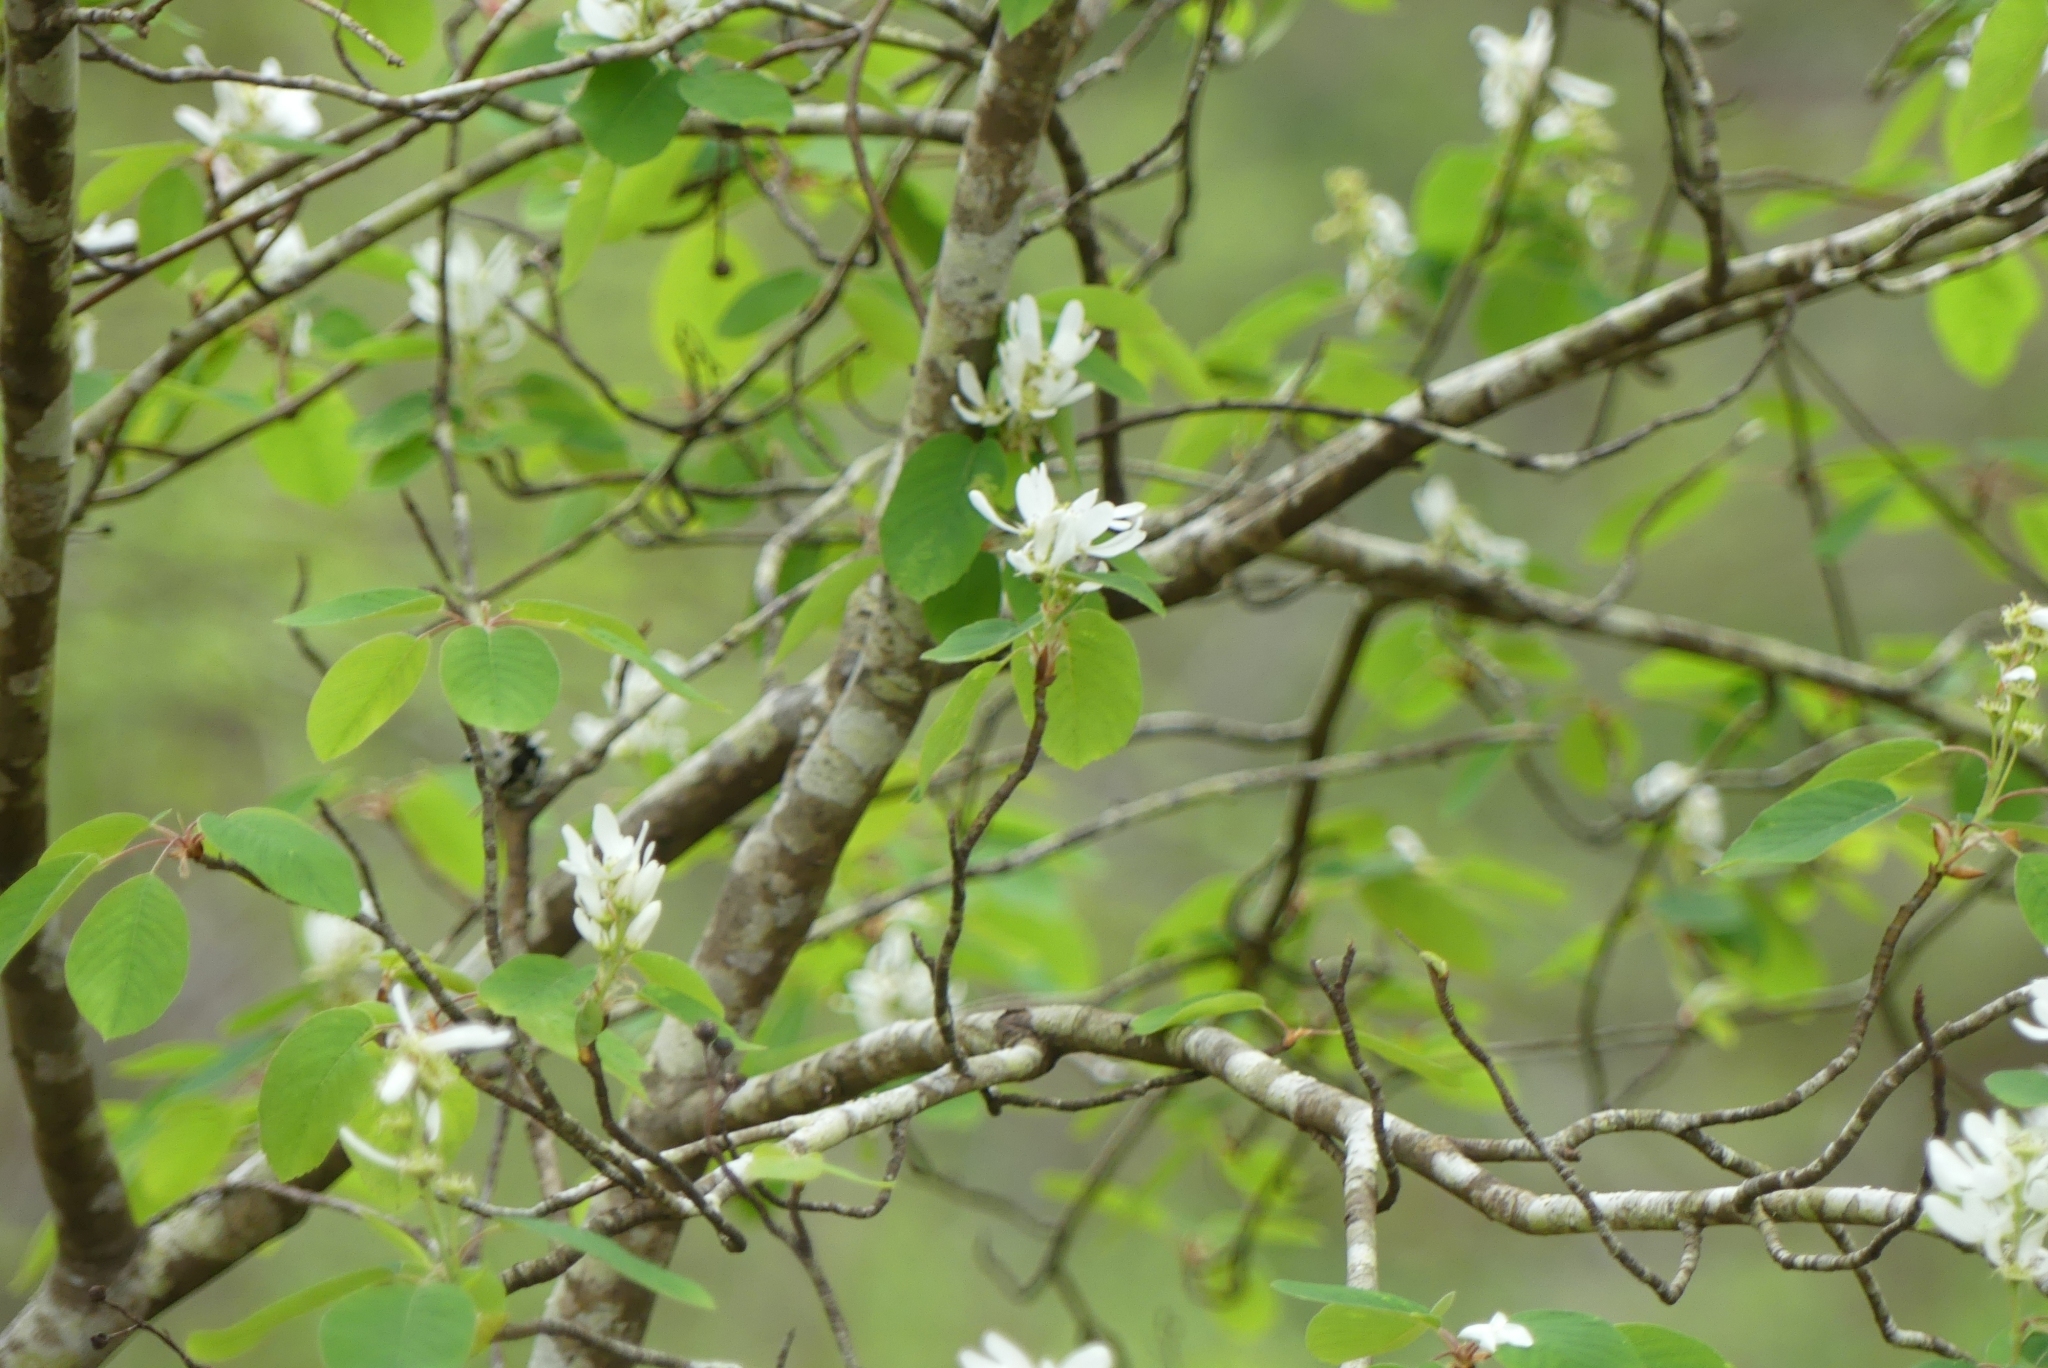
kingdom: Plantae
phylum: Tracheophyta
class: Magnoliopsida
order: Rosales
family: Rosaceae
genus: Amelanchier
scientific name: Amelanchier alnifolia
